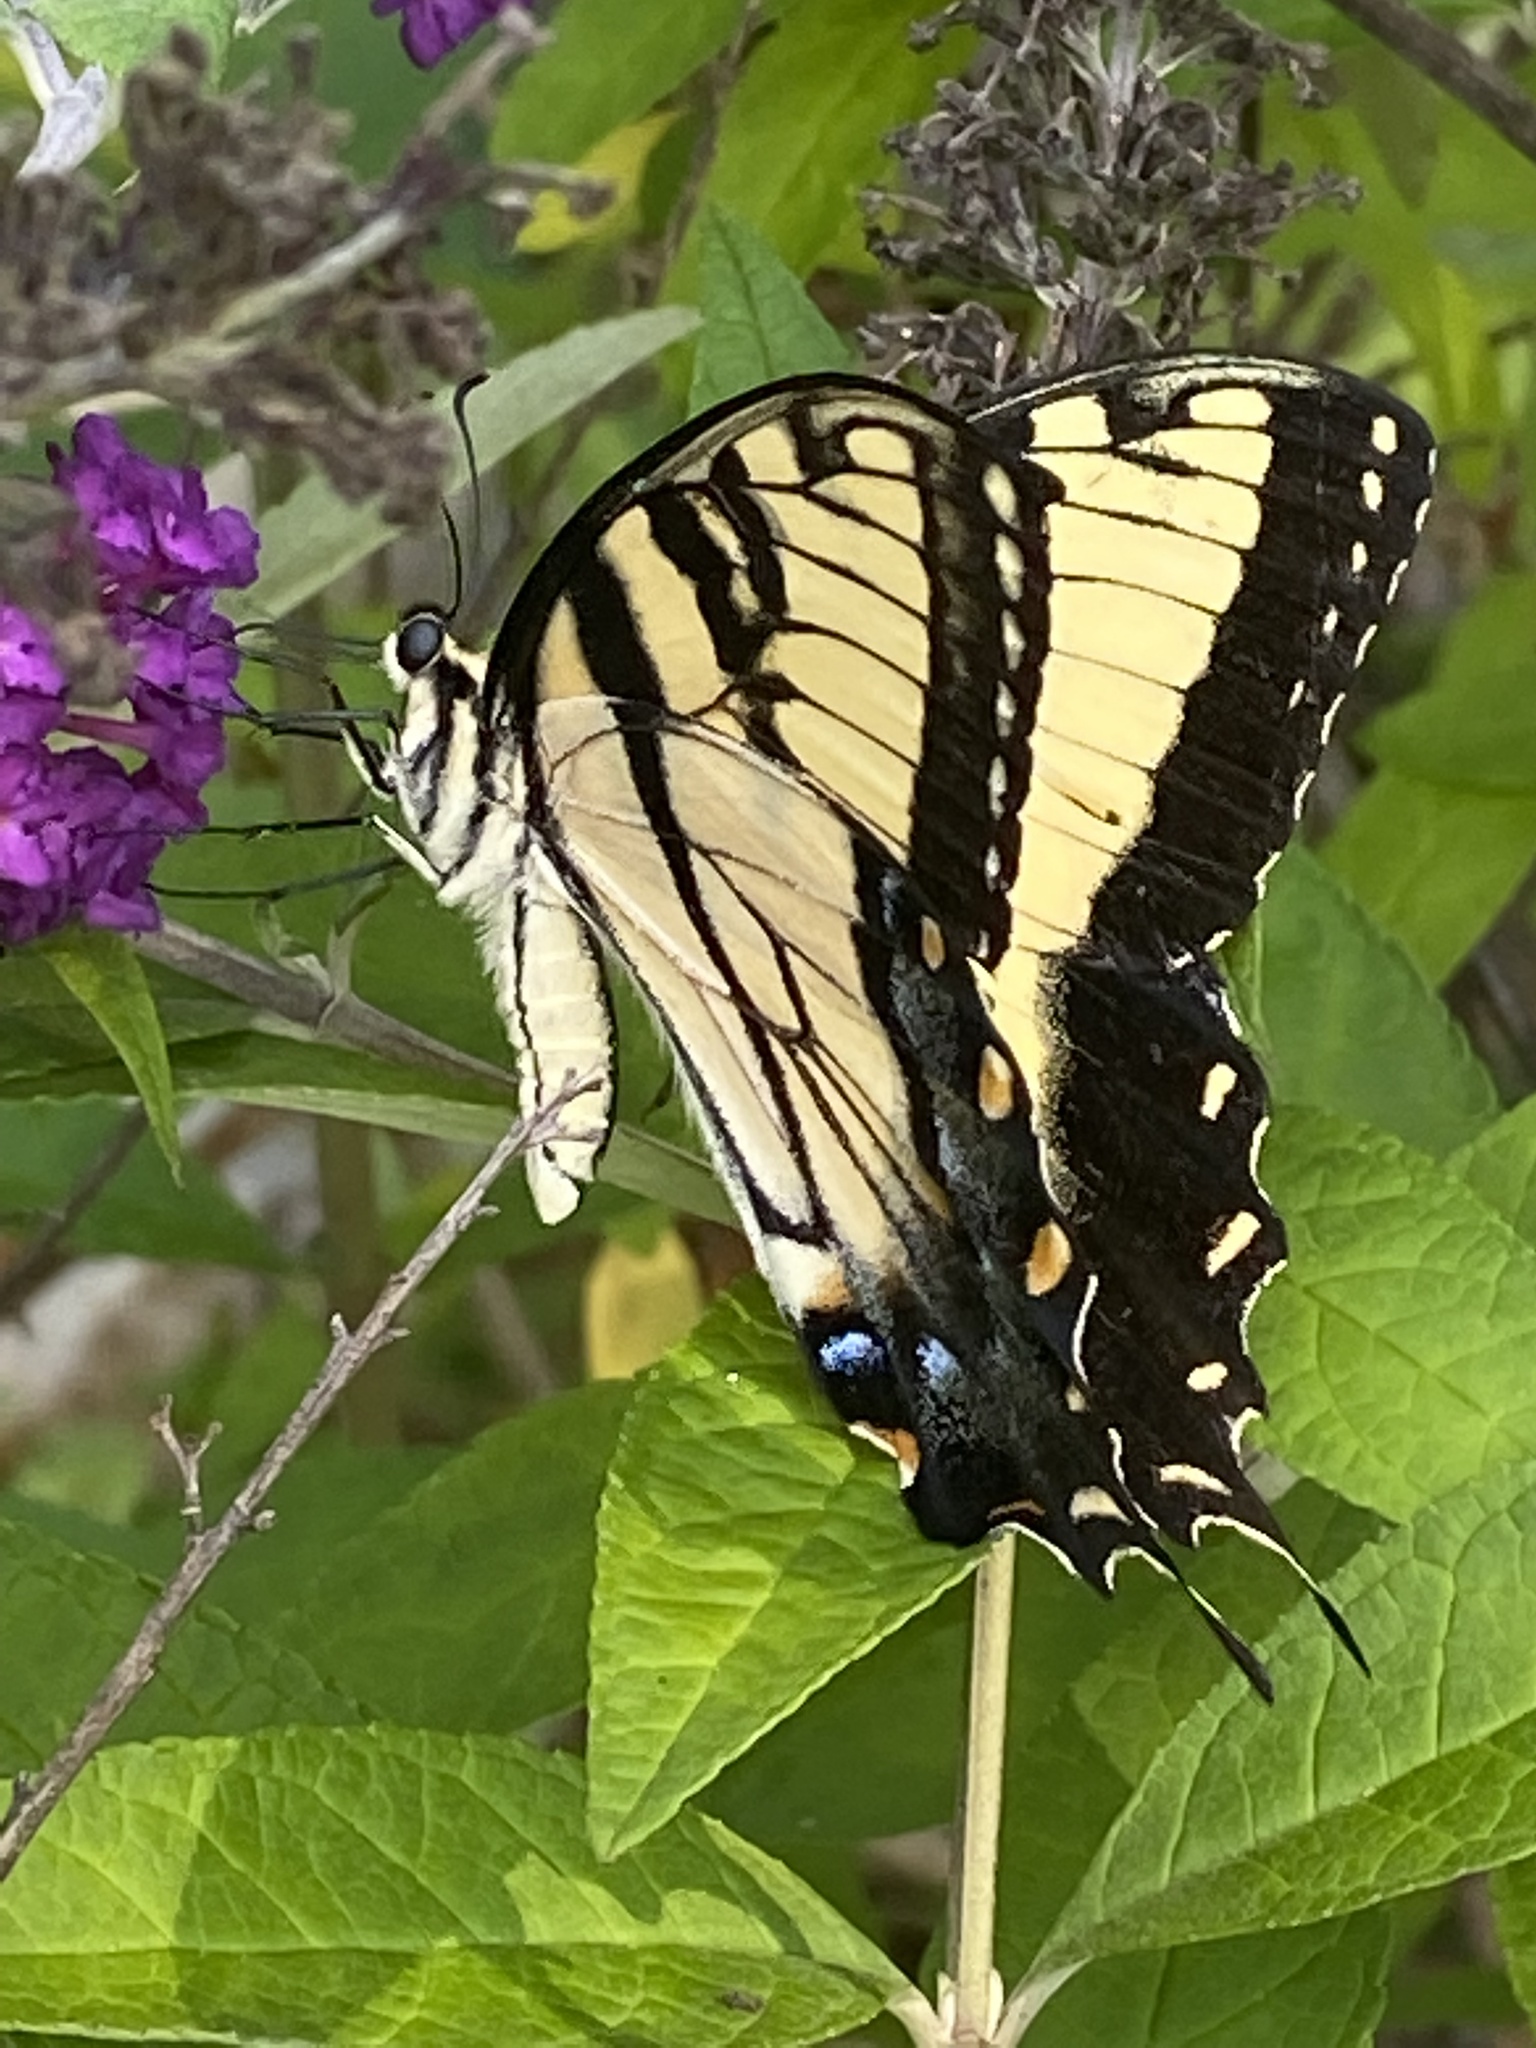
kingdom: Animalia
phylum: Arthropoda
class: Insecta
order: Lepidoptera
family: Papilionidae
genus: Papilio
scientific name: Papilio glaucus
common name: Tiger swallowtail
